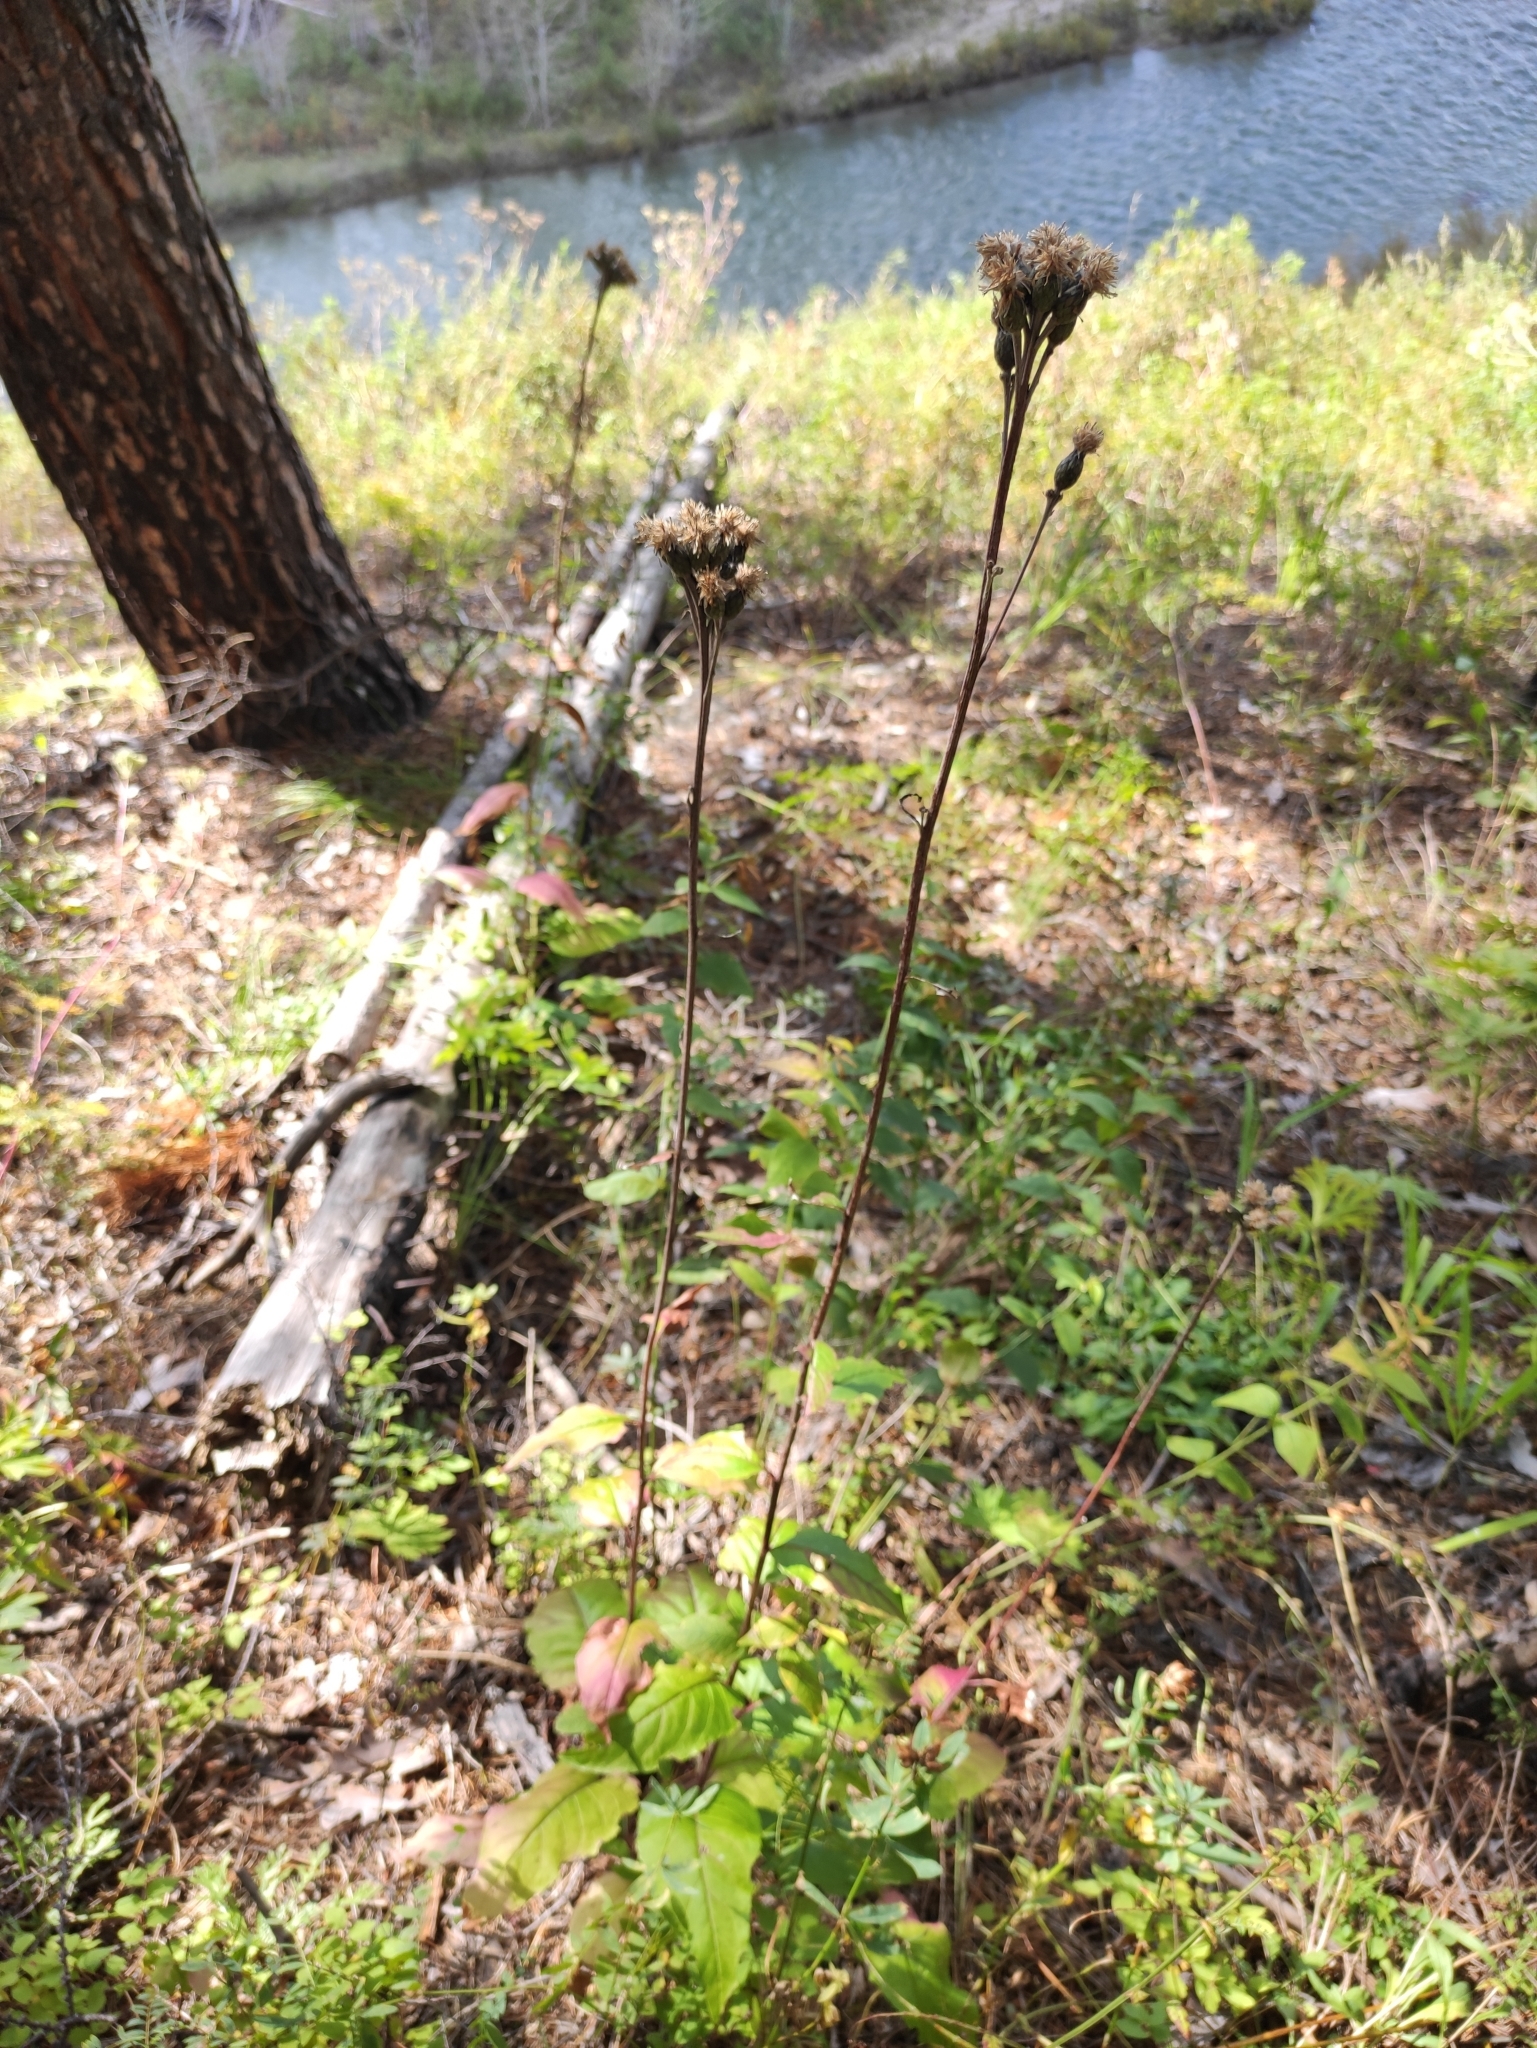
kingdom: Plantae
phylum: Tracheophyta
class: Magnoliopsida
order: Asterales
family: Asteraceae
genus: Saussurea
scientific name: Saussurea controversa
